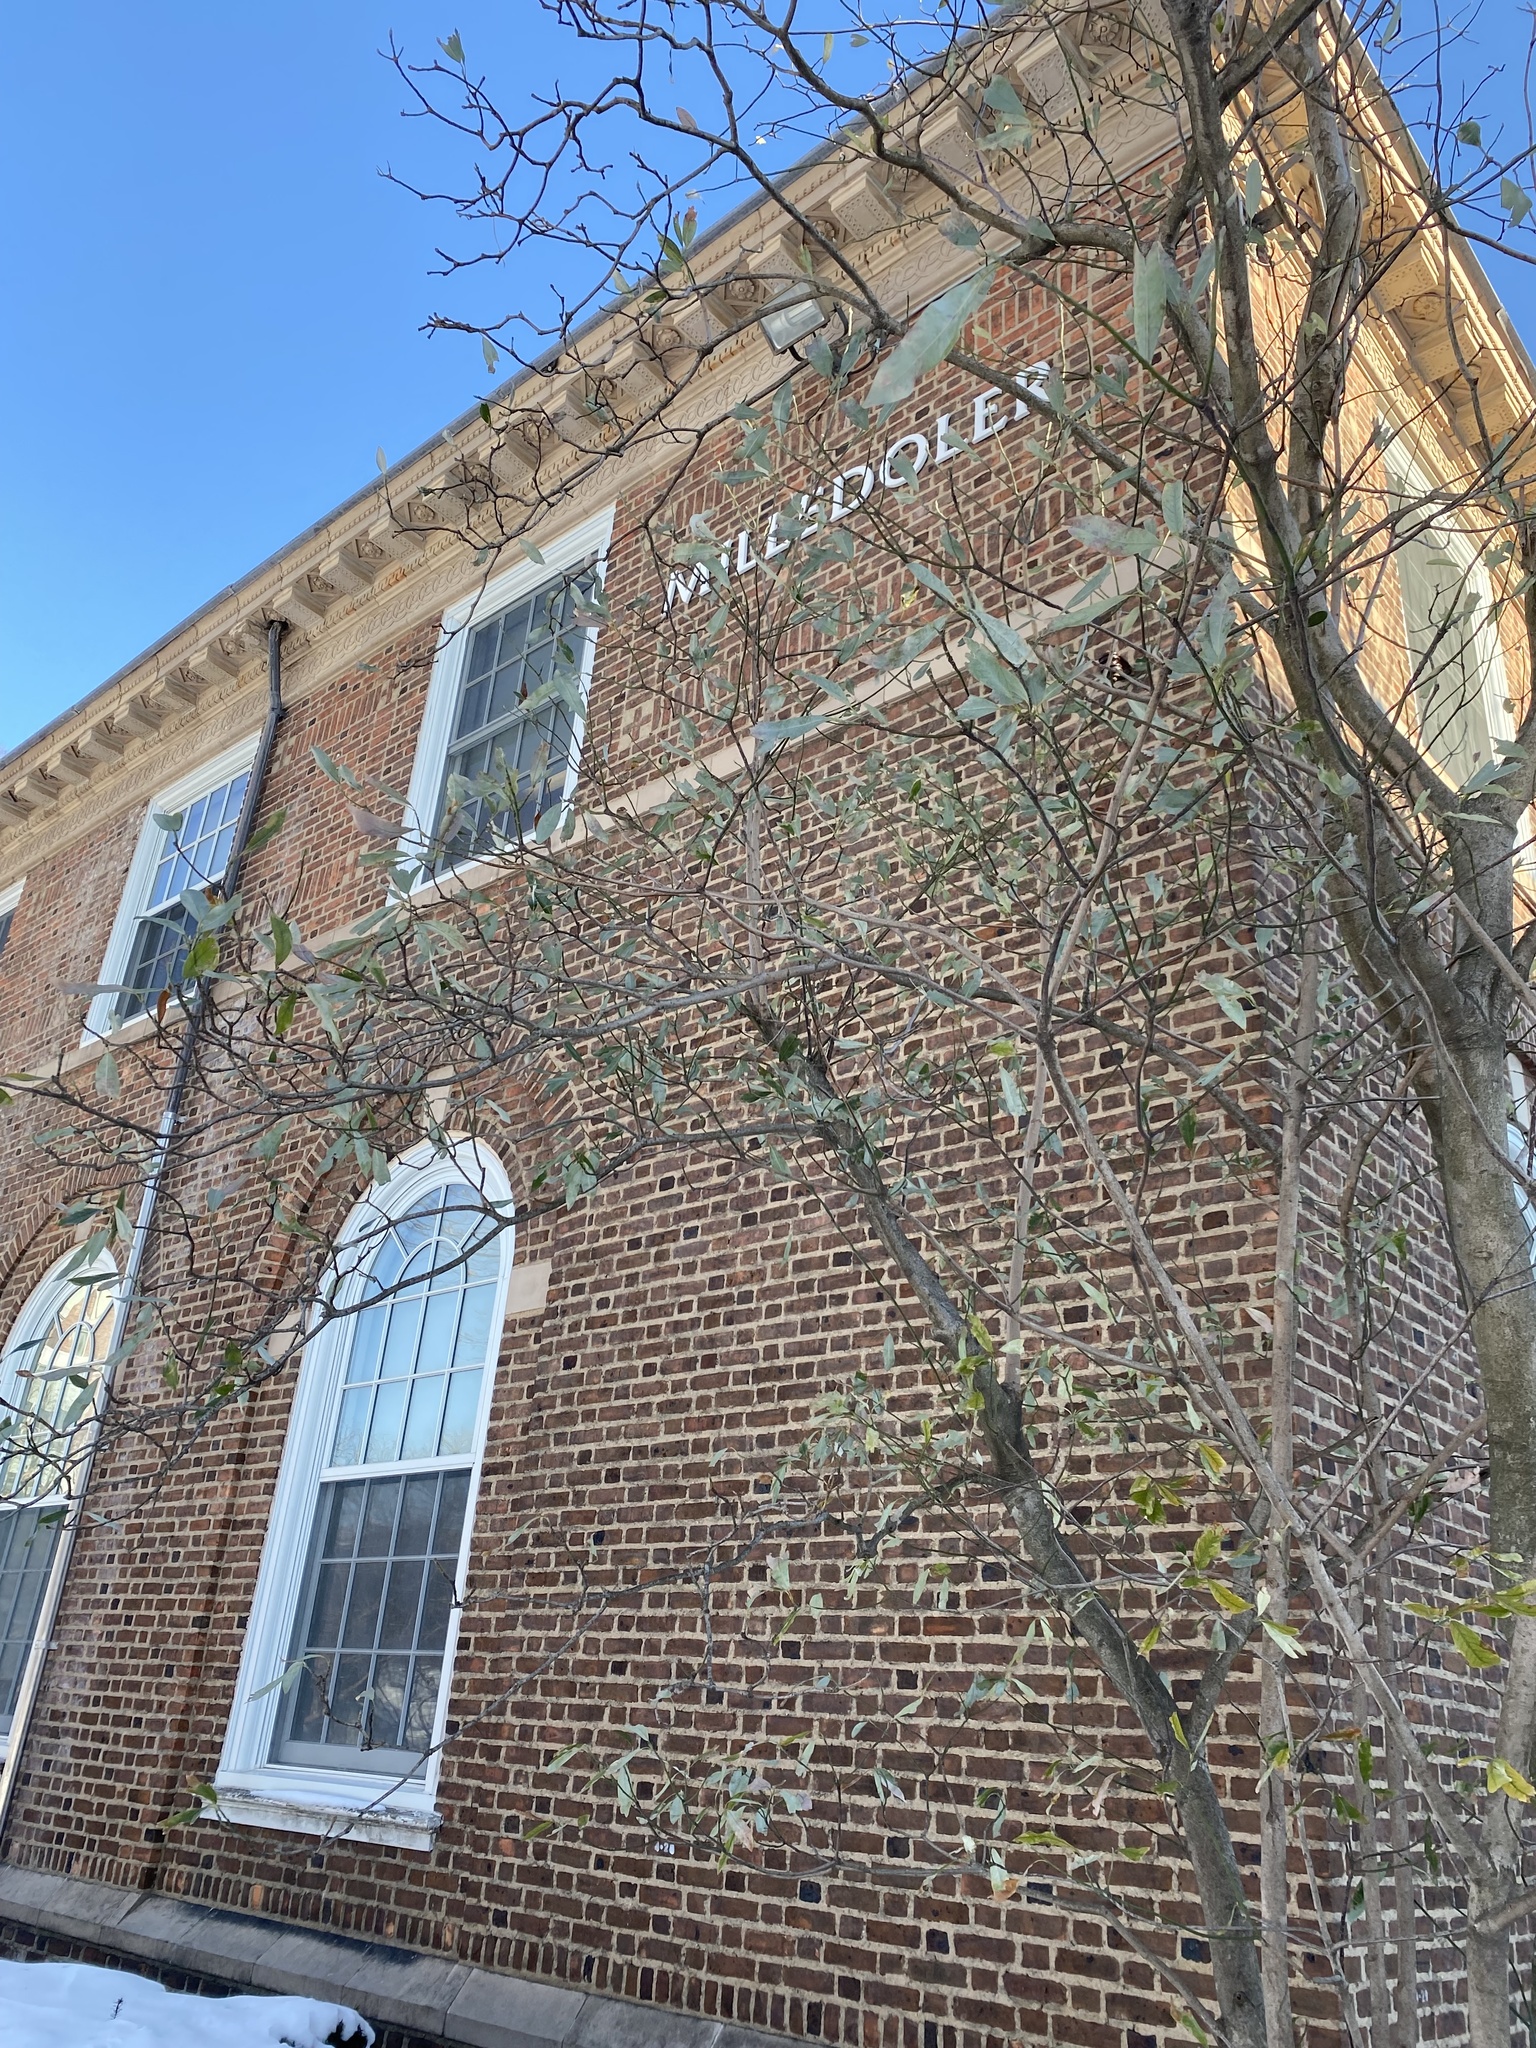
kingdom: Animalia
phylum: Chordata
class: Aves
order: Passeriformes
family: Passeridae
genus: Passer
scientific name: Passer domesticus
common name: House sparrow
